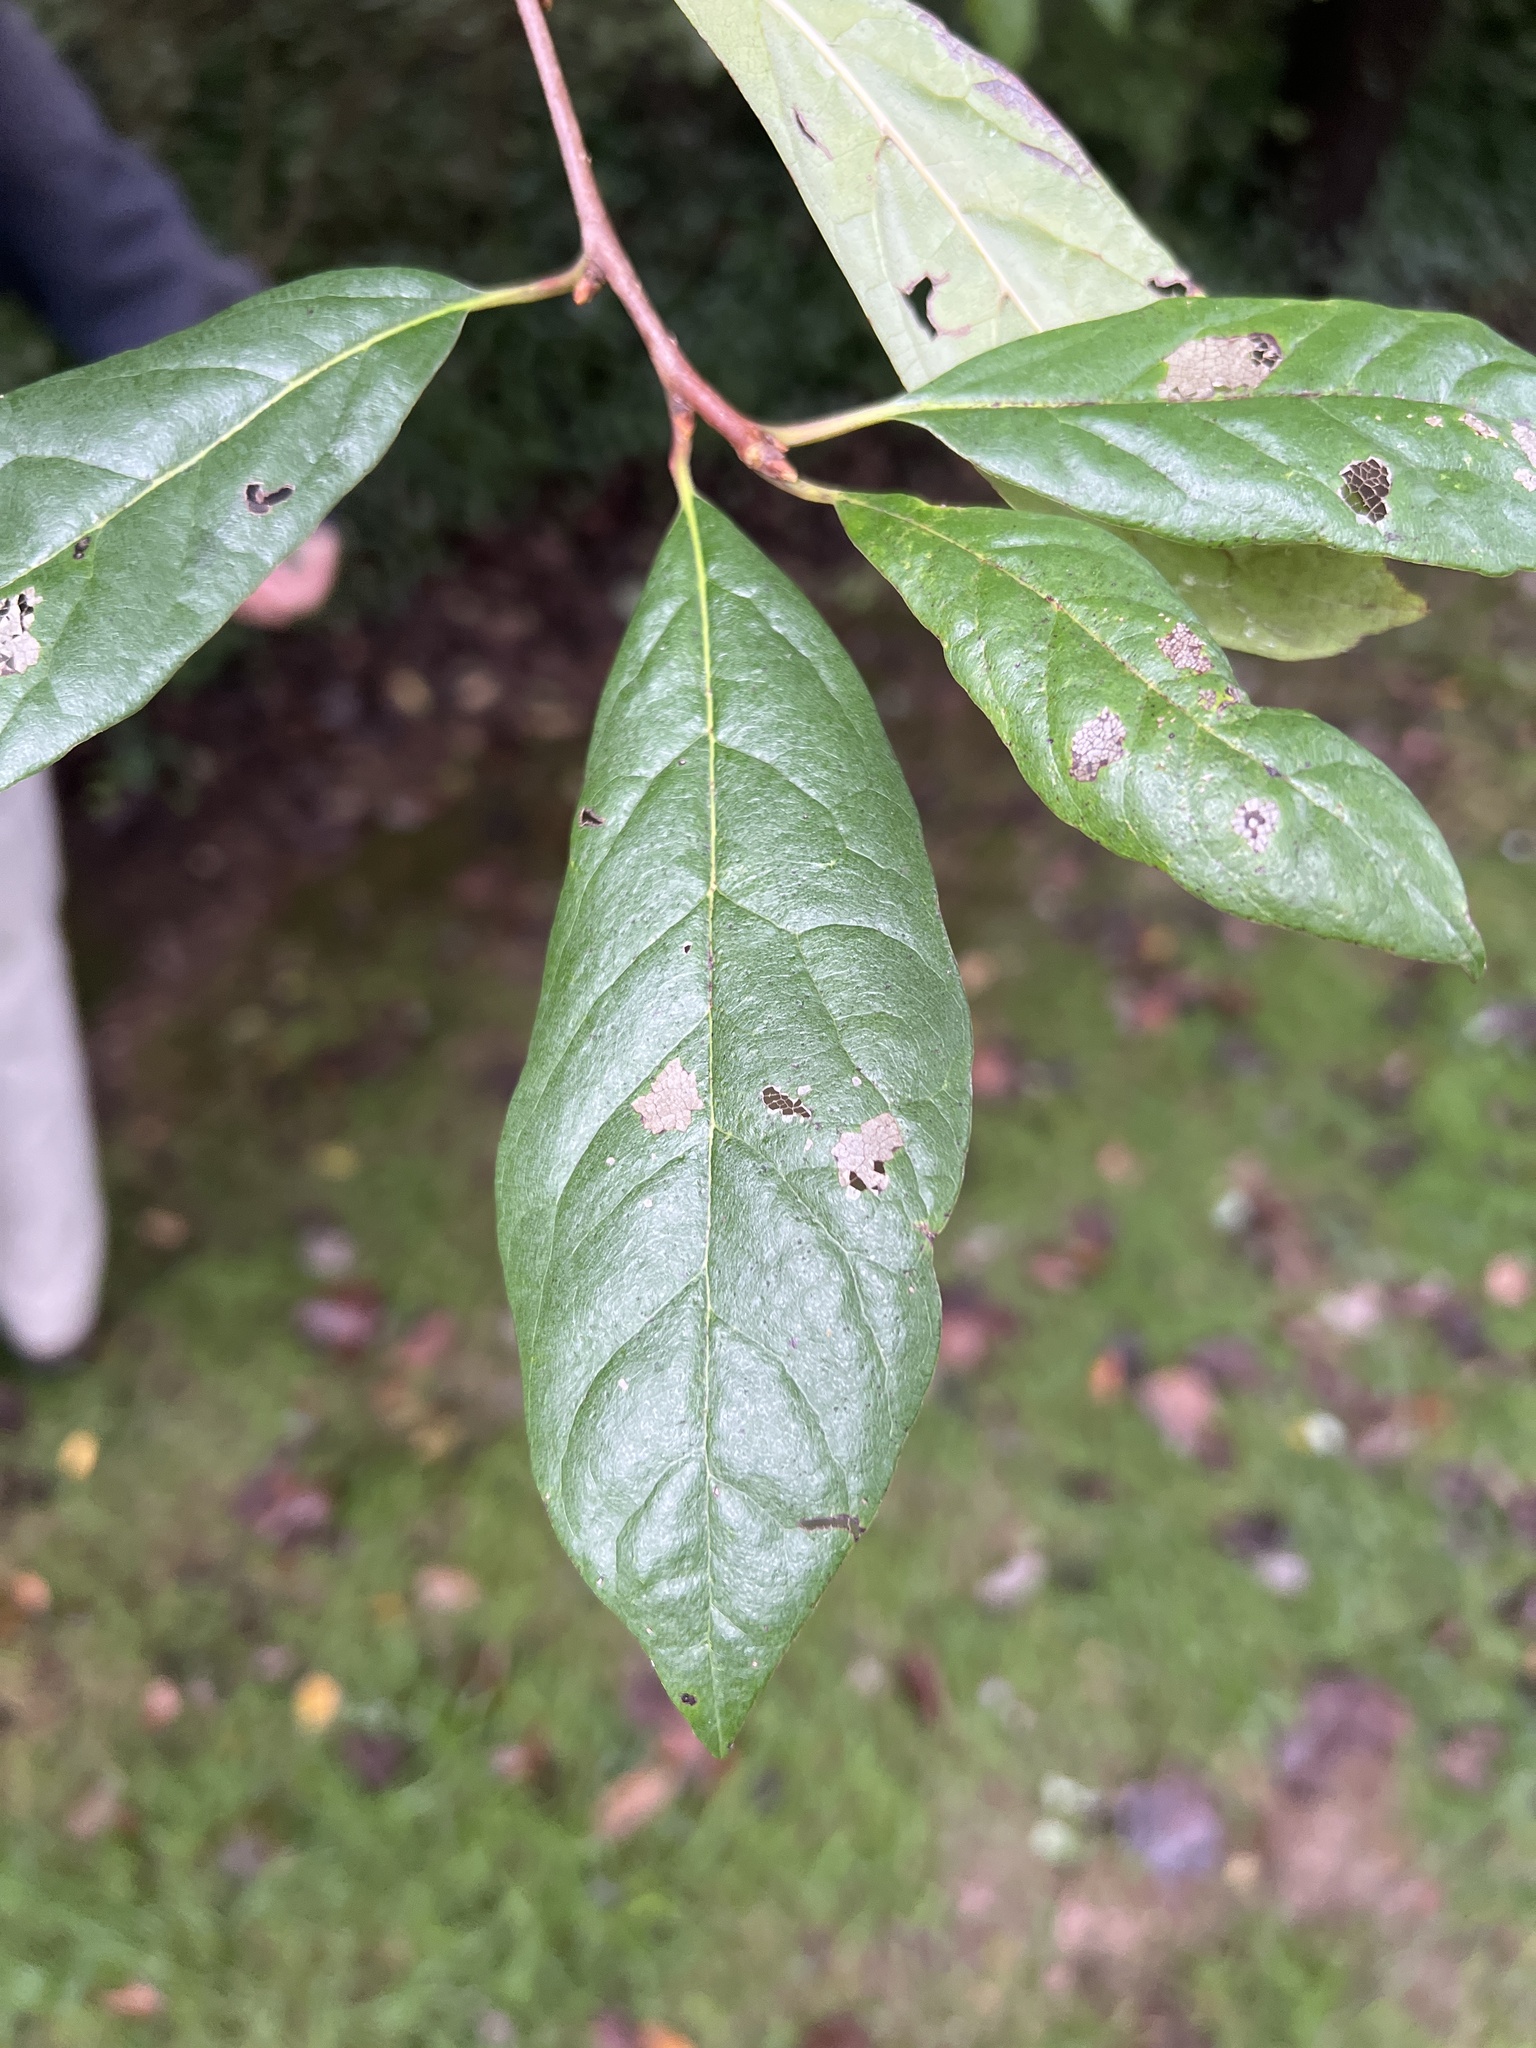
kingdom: Plantae
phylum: Tracheophyta
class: Magnoliopsida
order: Cornales
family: Nyssaceae
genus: Nyssa
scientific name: Nyssa sylvatica
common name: Black tupelo
